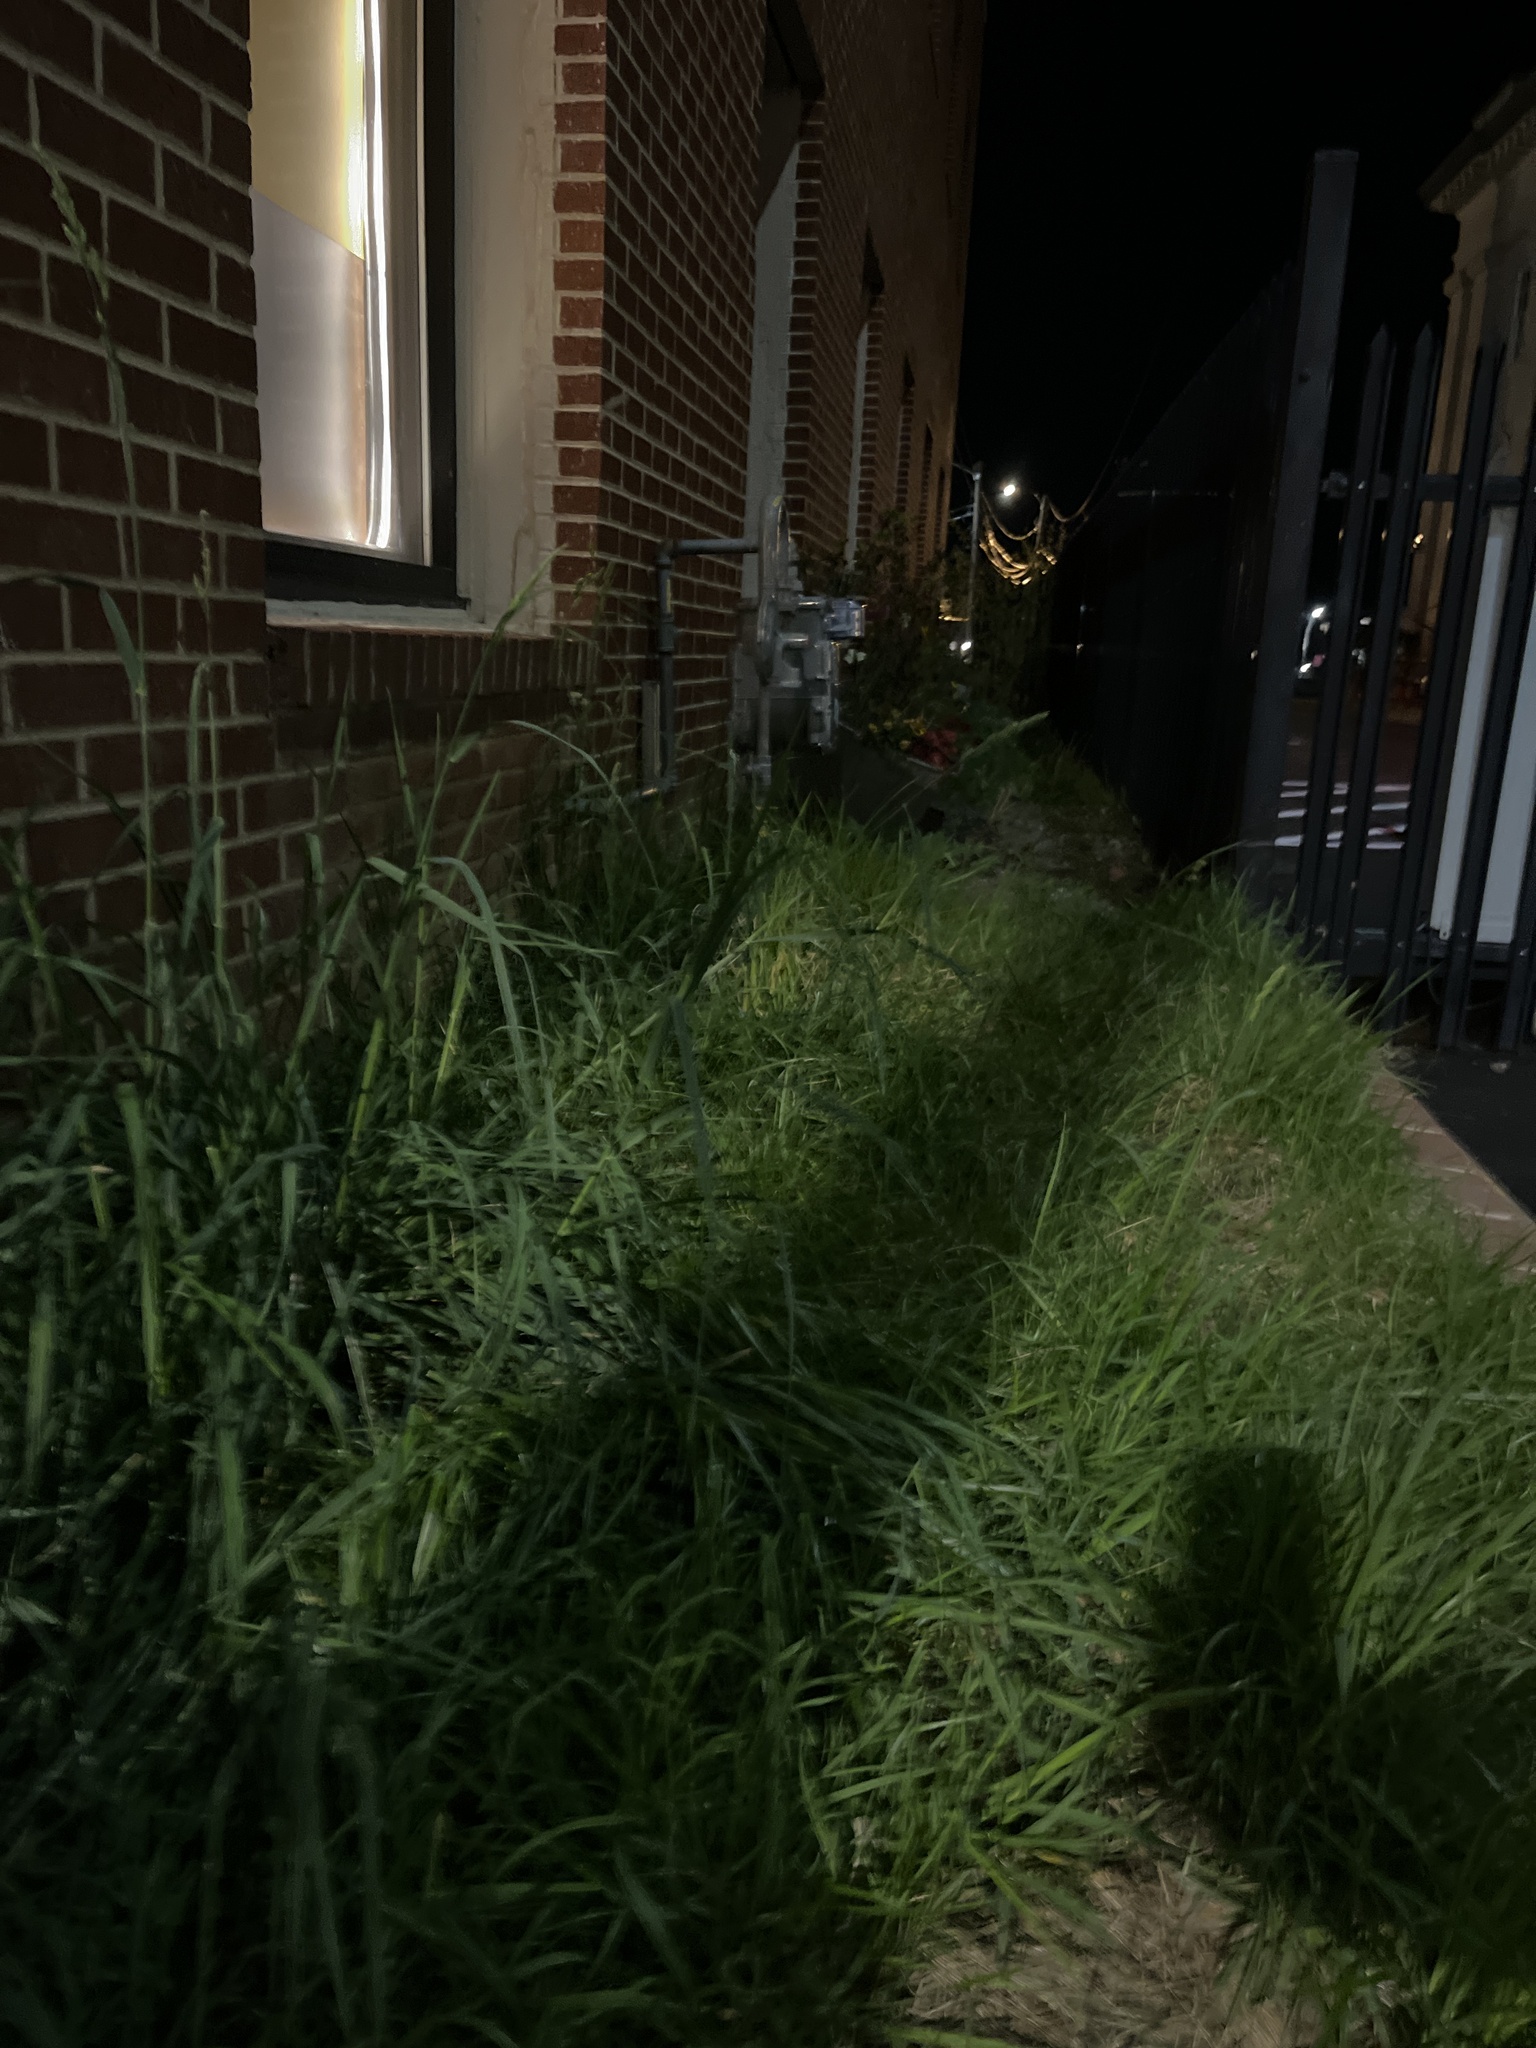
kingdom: Plantae
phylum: Tracheophyta
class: Liliopsida
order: Poales
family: Poaceae
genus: Dactylis
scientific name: Dactylis glomerata
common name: Orchardgrass
